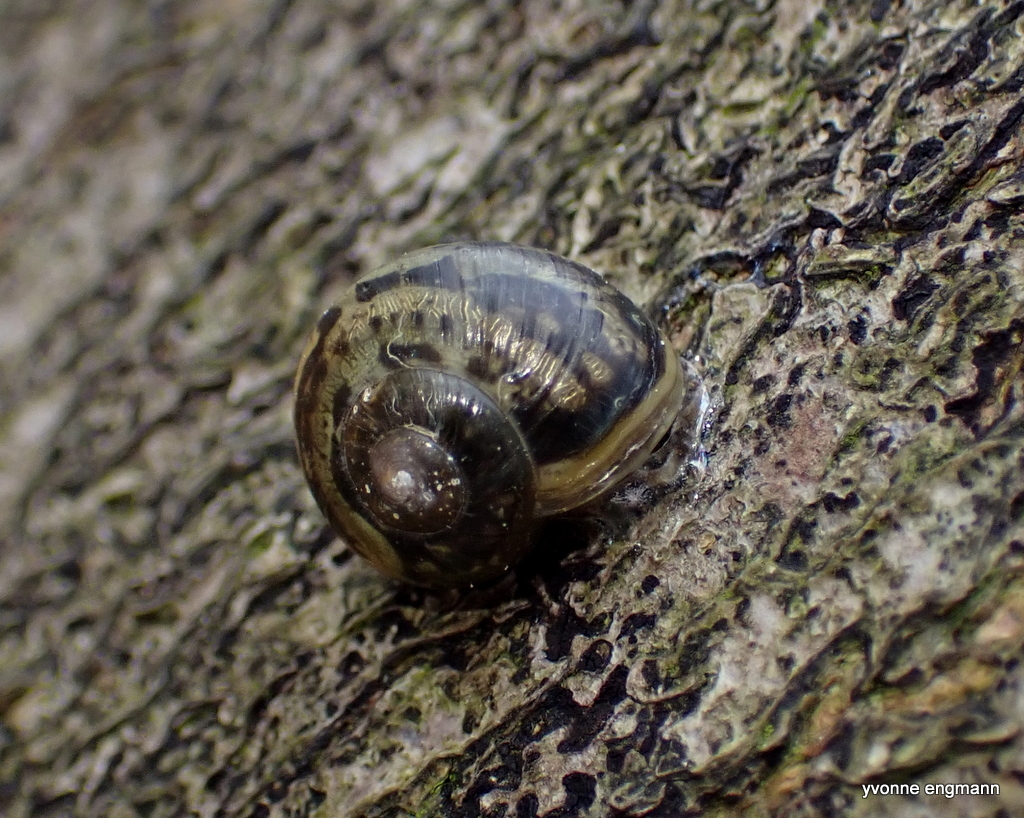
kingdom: Animalia
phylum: Mollusca
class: Gastropoda
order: Stylommatophora
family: Helicidae
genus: Cepaea
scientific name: Cepaea
